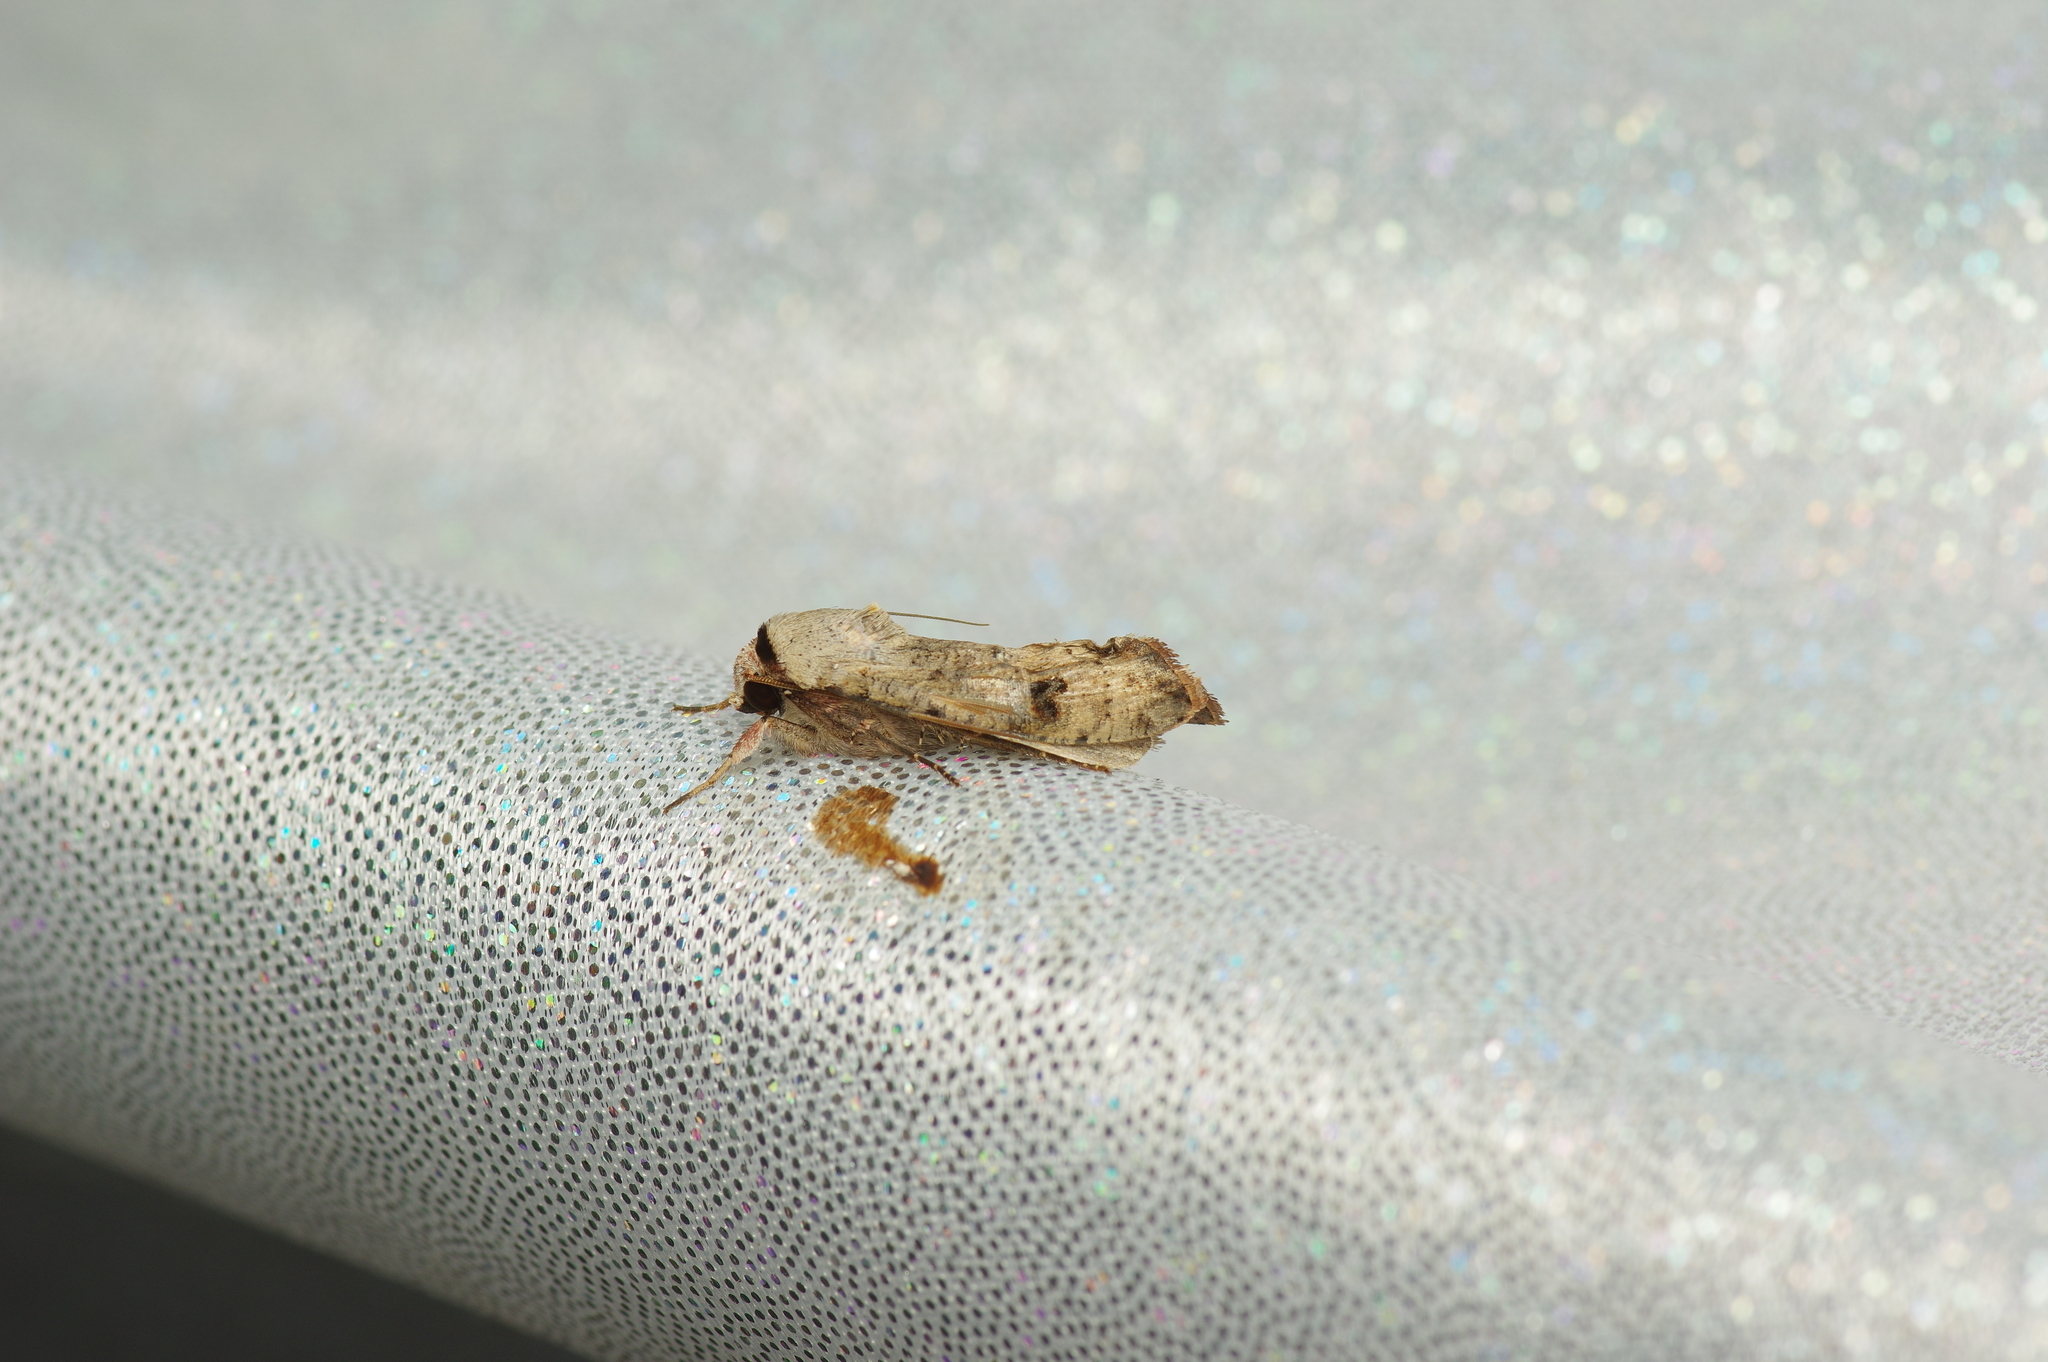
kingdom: Animalia
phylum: Arthropoda
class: Insecta
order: Lepidoptera
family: Noctuidae
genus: Anicla
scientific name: Anicla infecta
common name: Green cutworm
